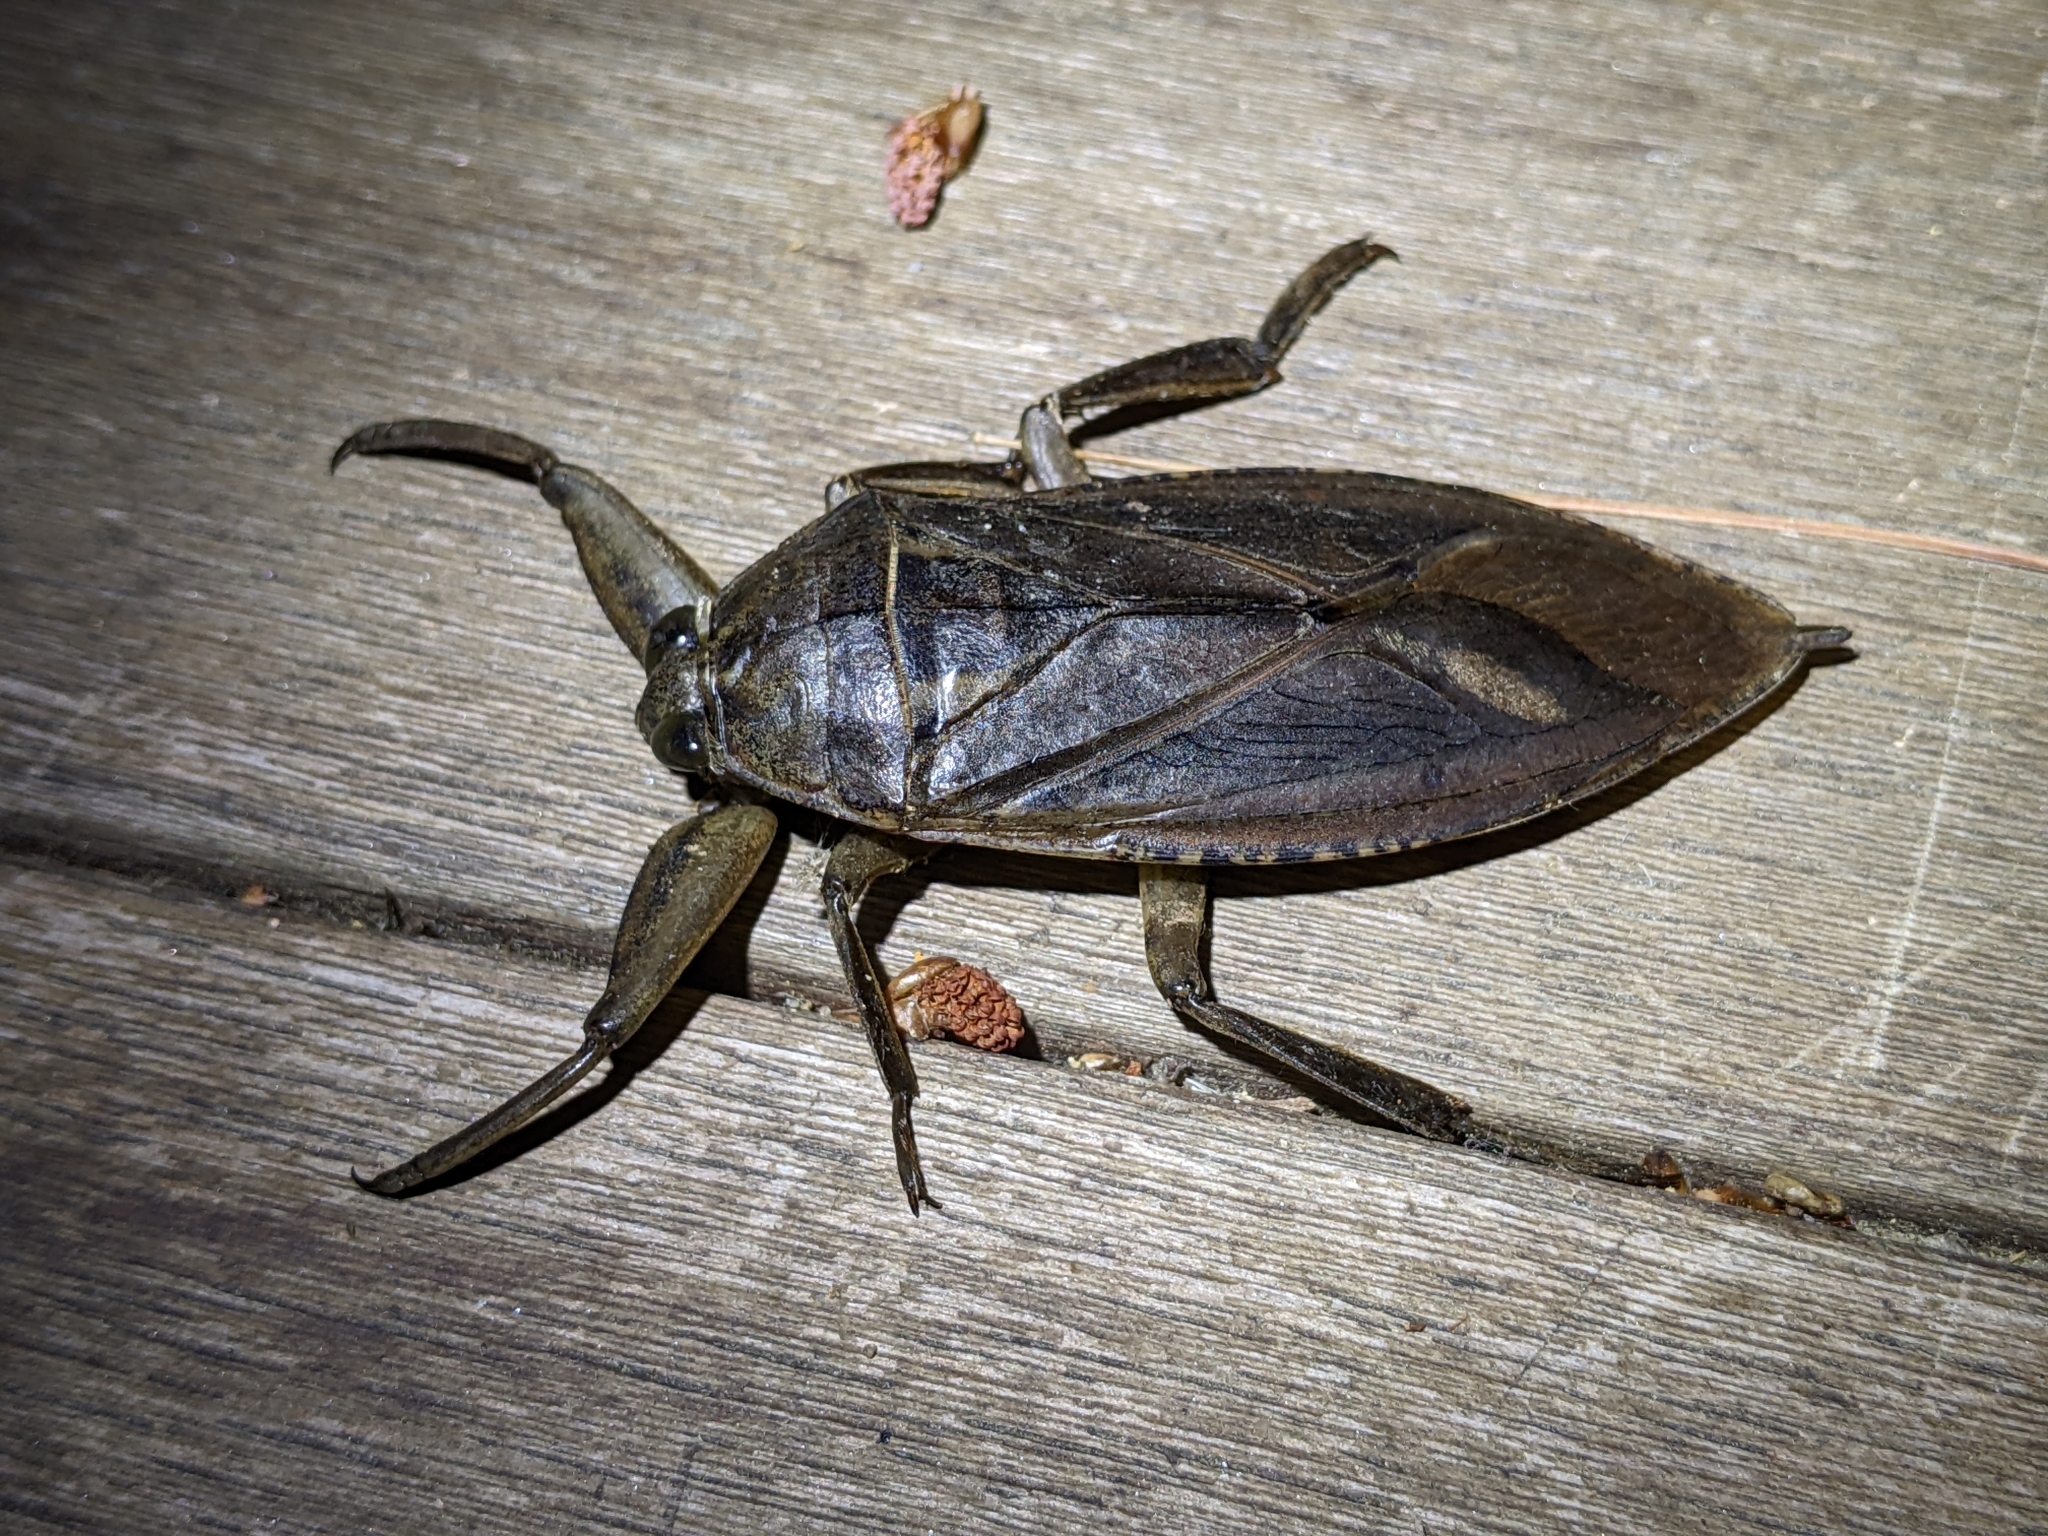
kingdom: Animalia
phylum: Arthropoda
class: Insecta
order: Hemiptera
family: Belostomatidae
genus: Lethocerus
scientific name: Lethocerus americanus
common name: Giant water bug
